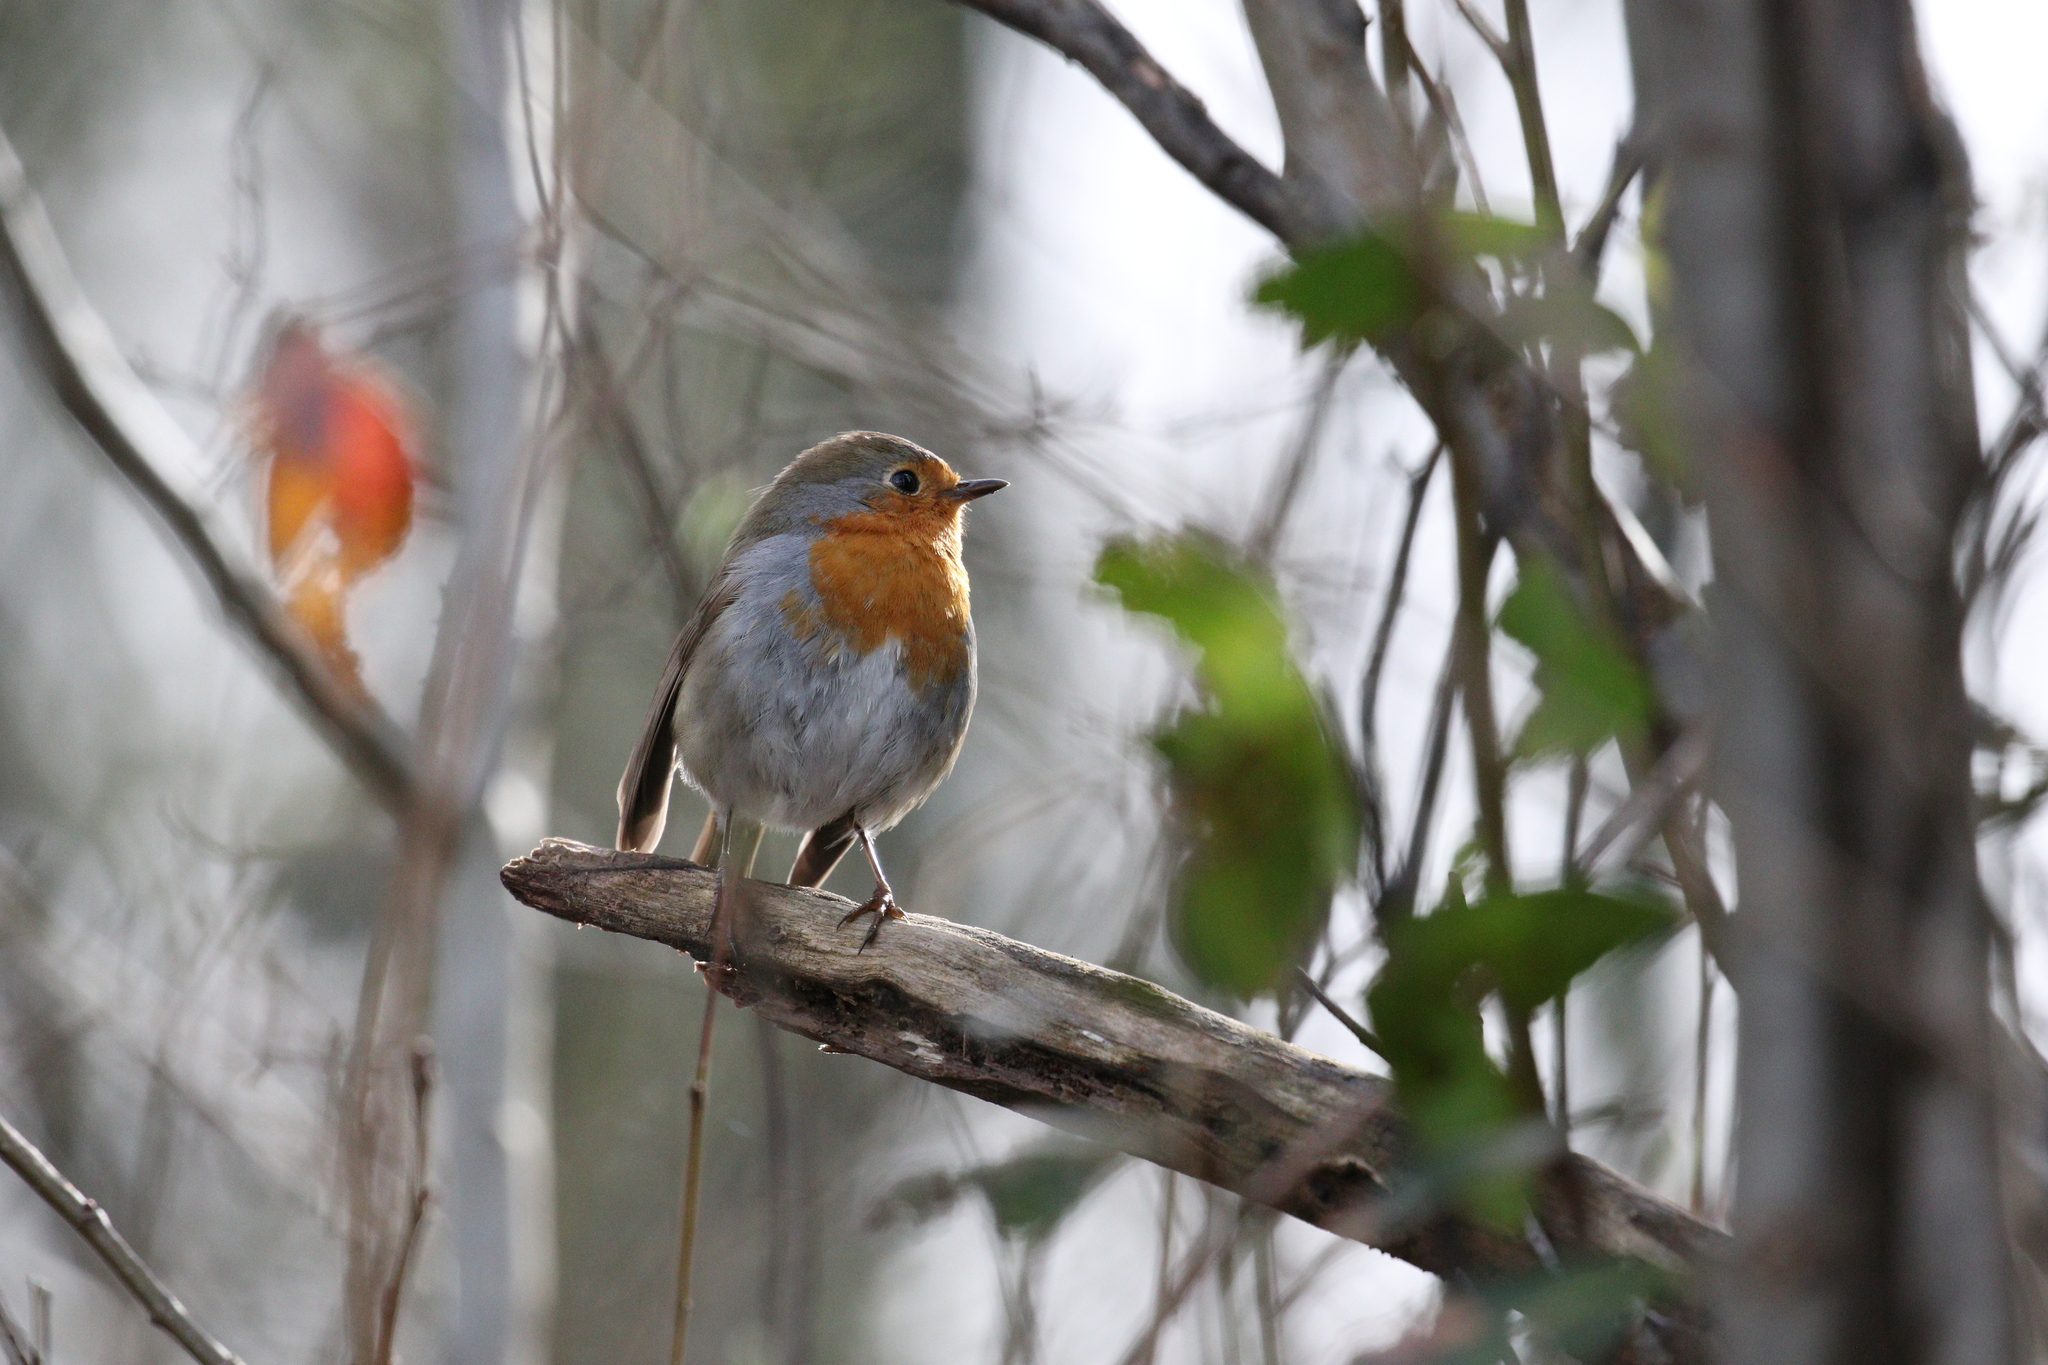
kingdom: Animalia
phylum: Chordata
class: Aves
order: Passeriformes
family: Muscicapidae
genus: Erithacus
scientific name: Erithacus rubecula
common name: European robin
